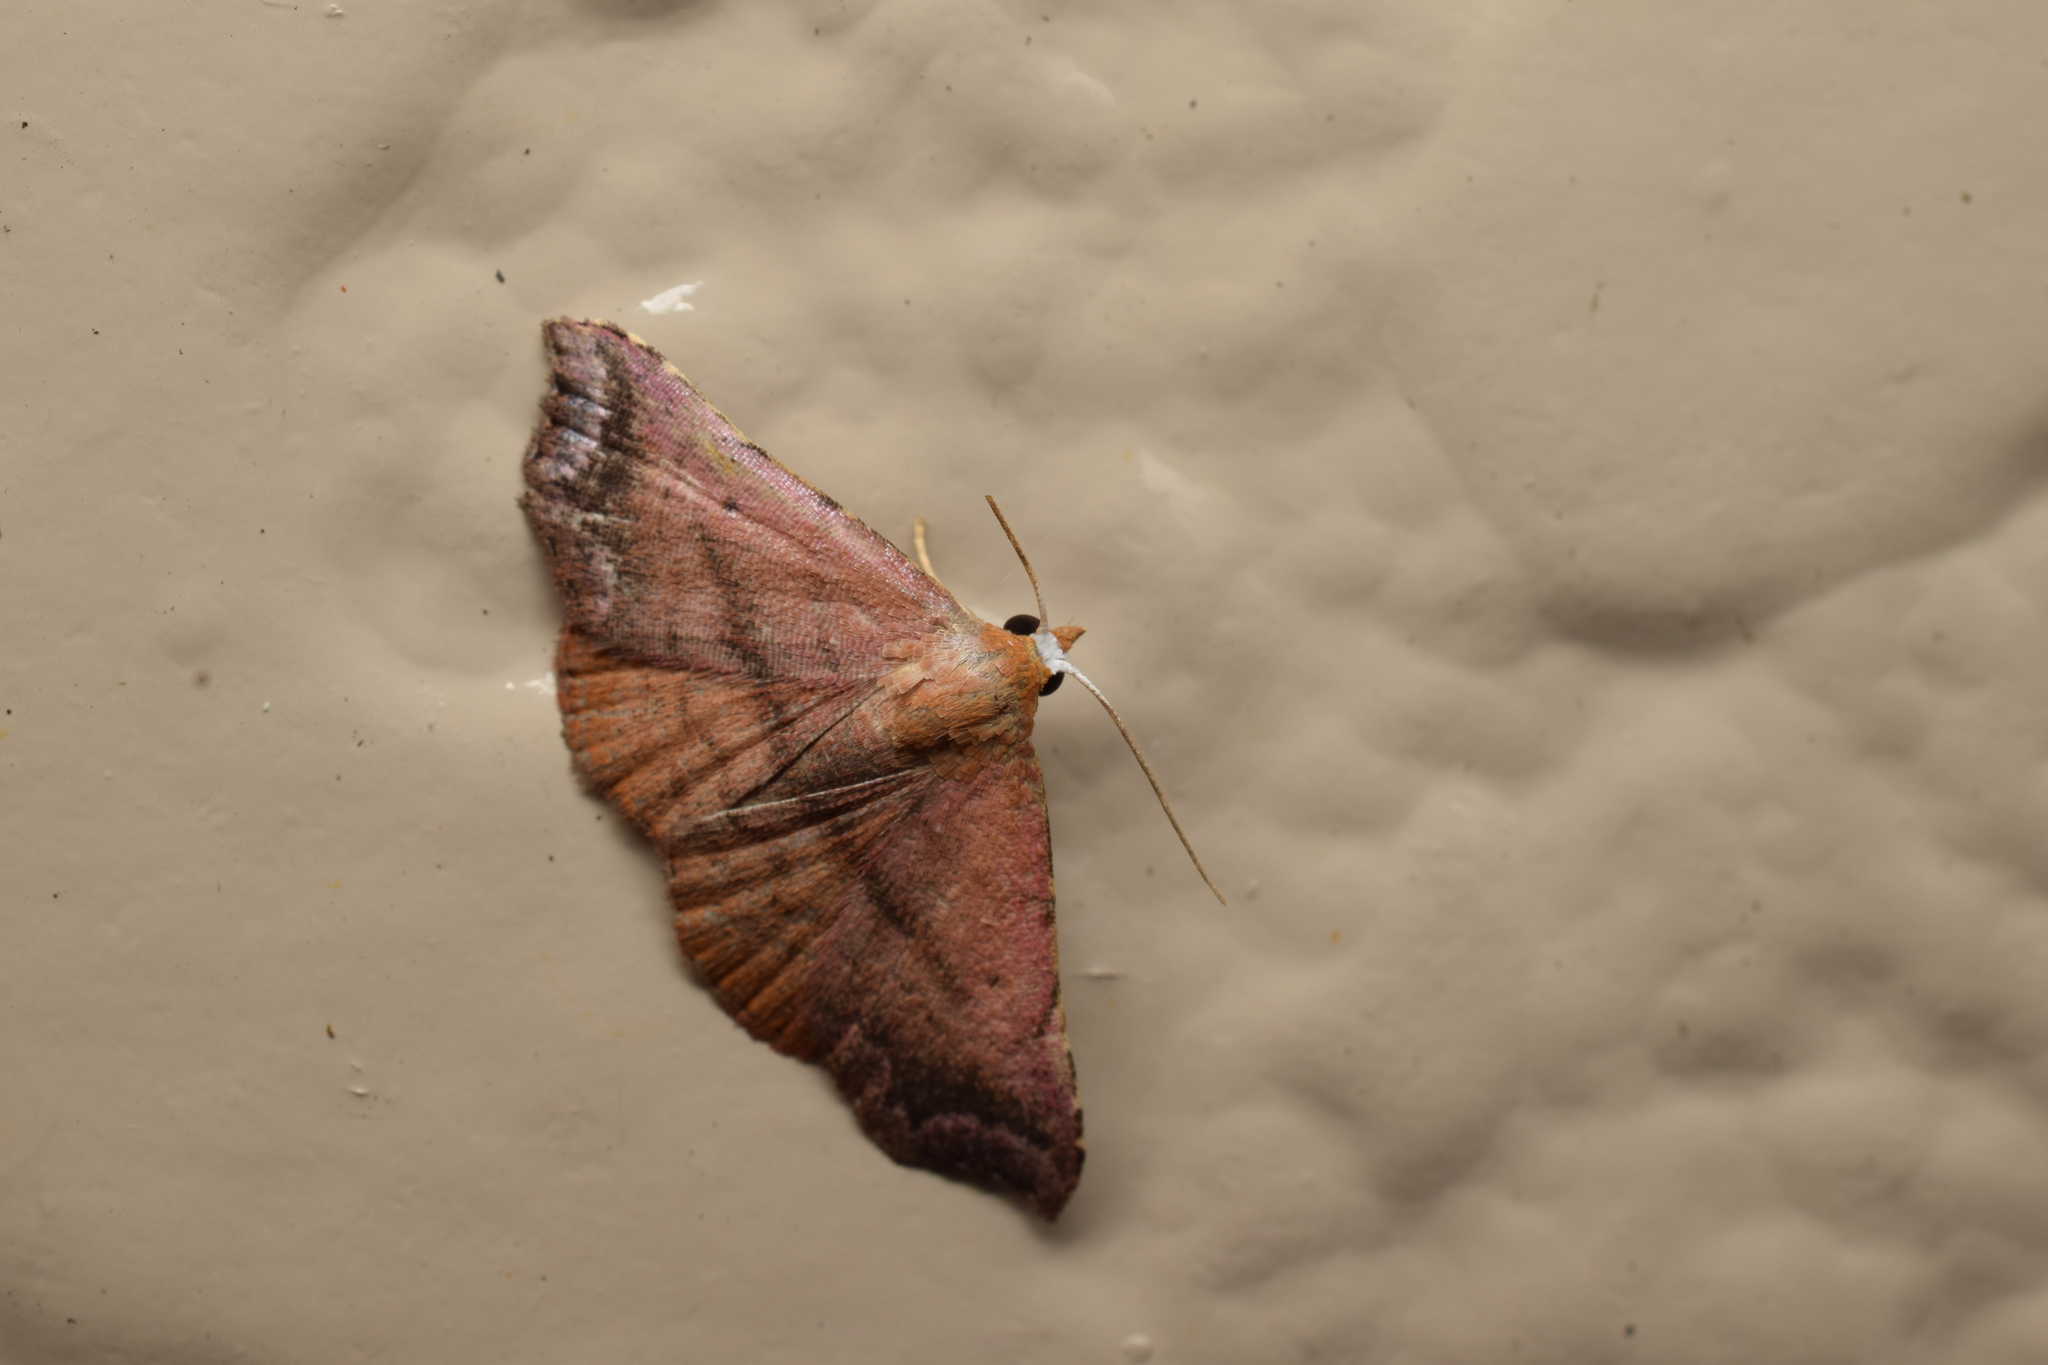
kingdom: Animalia
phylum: Arthropoda
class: Insecta
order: Lepidoptera
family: Erebidae
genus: Corgatha
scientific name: Corgatha nitens
